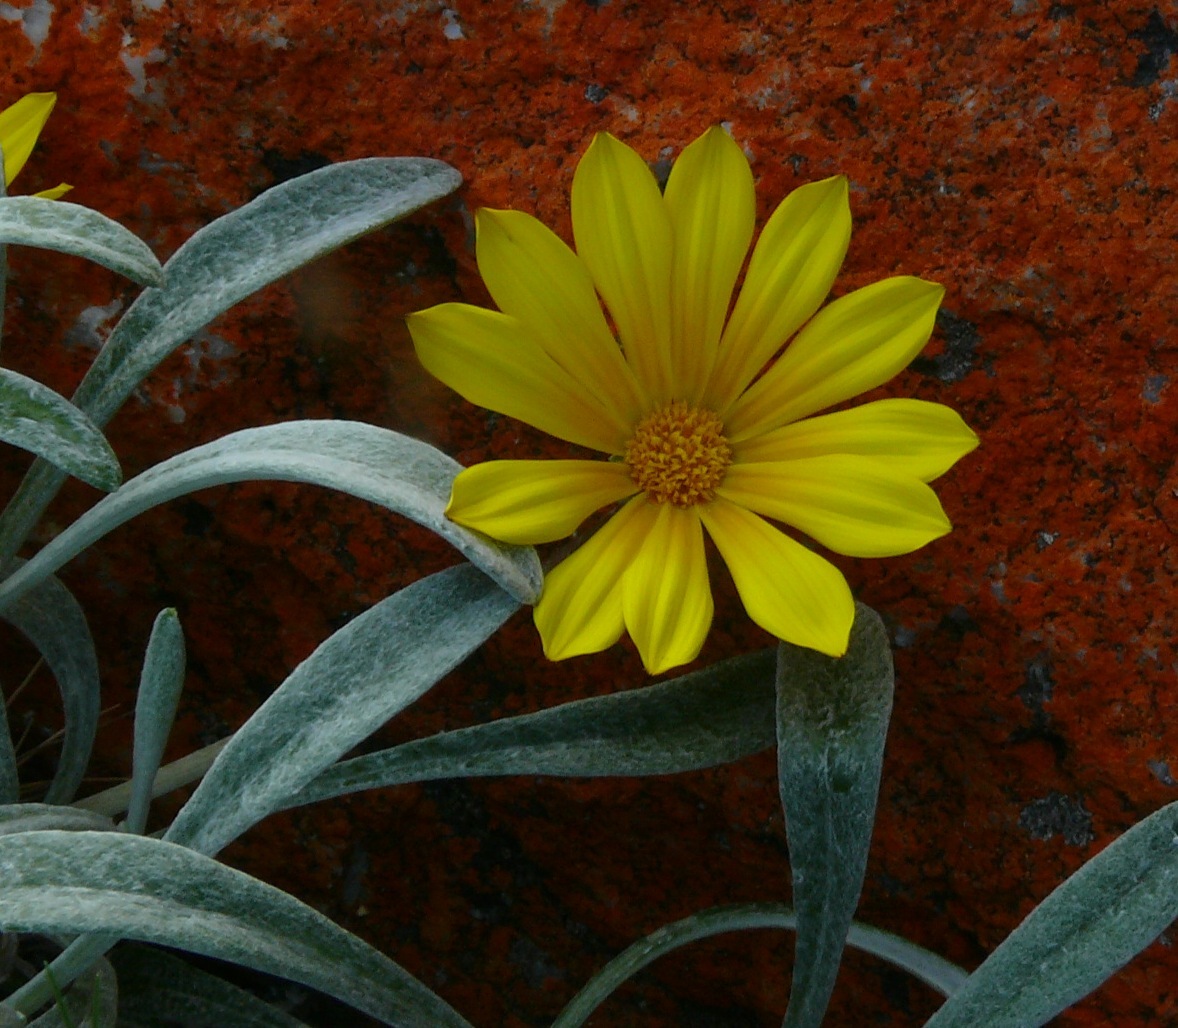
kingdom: Plantae
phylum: Tracheophyta
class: Magnoliopsida
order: Asterales
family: Asteraceae
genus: Gazania
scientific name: Gazania rigens
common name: Treasureflower
